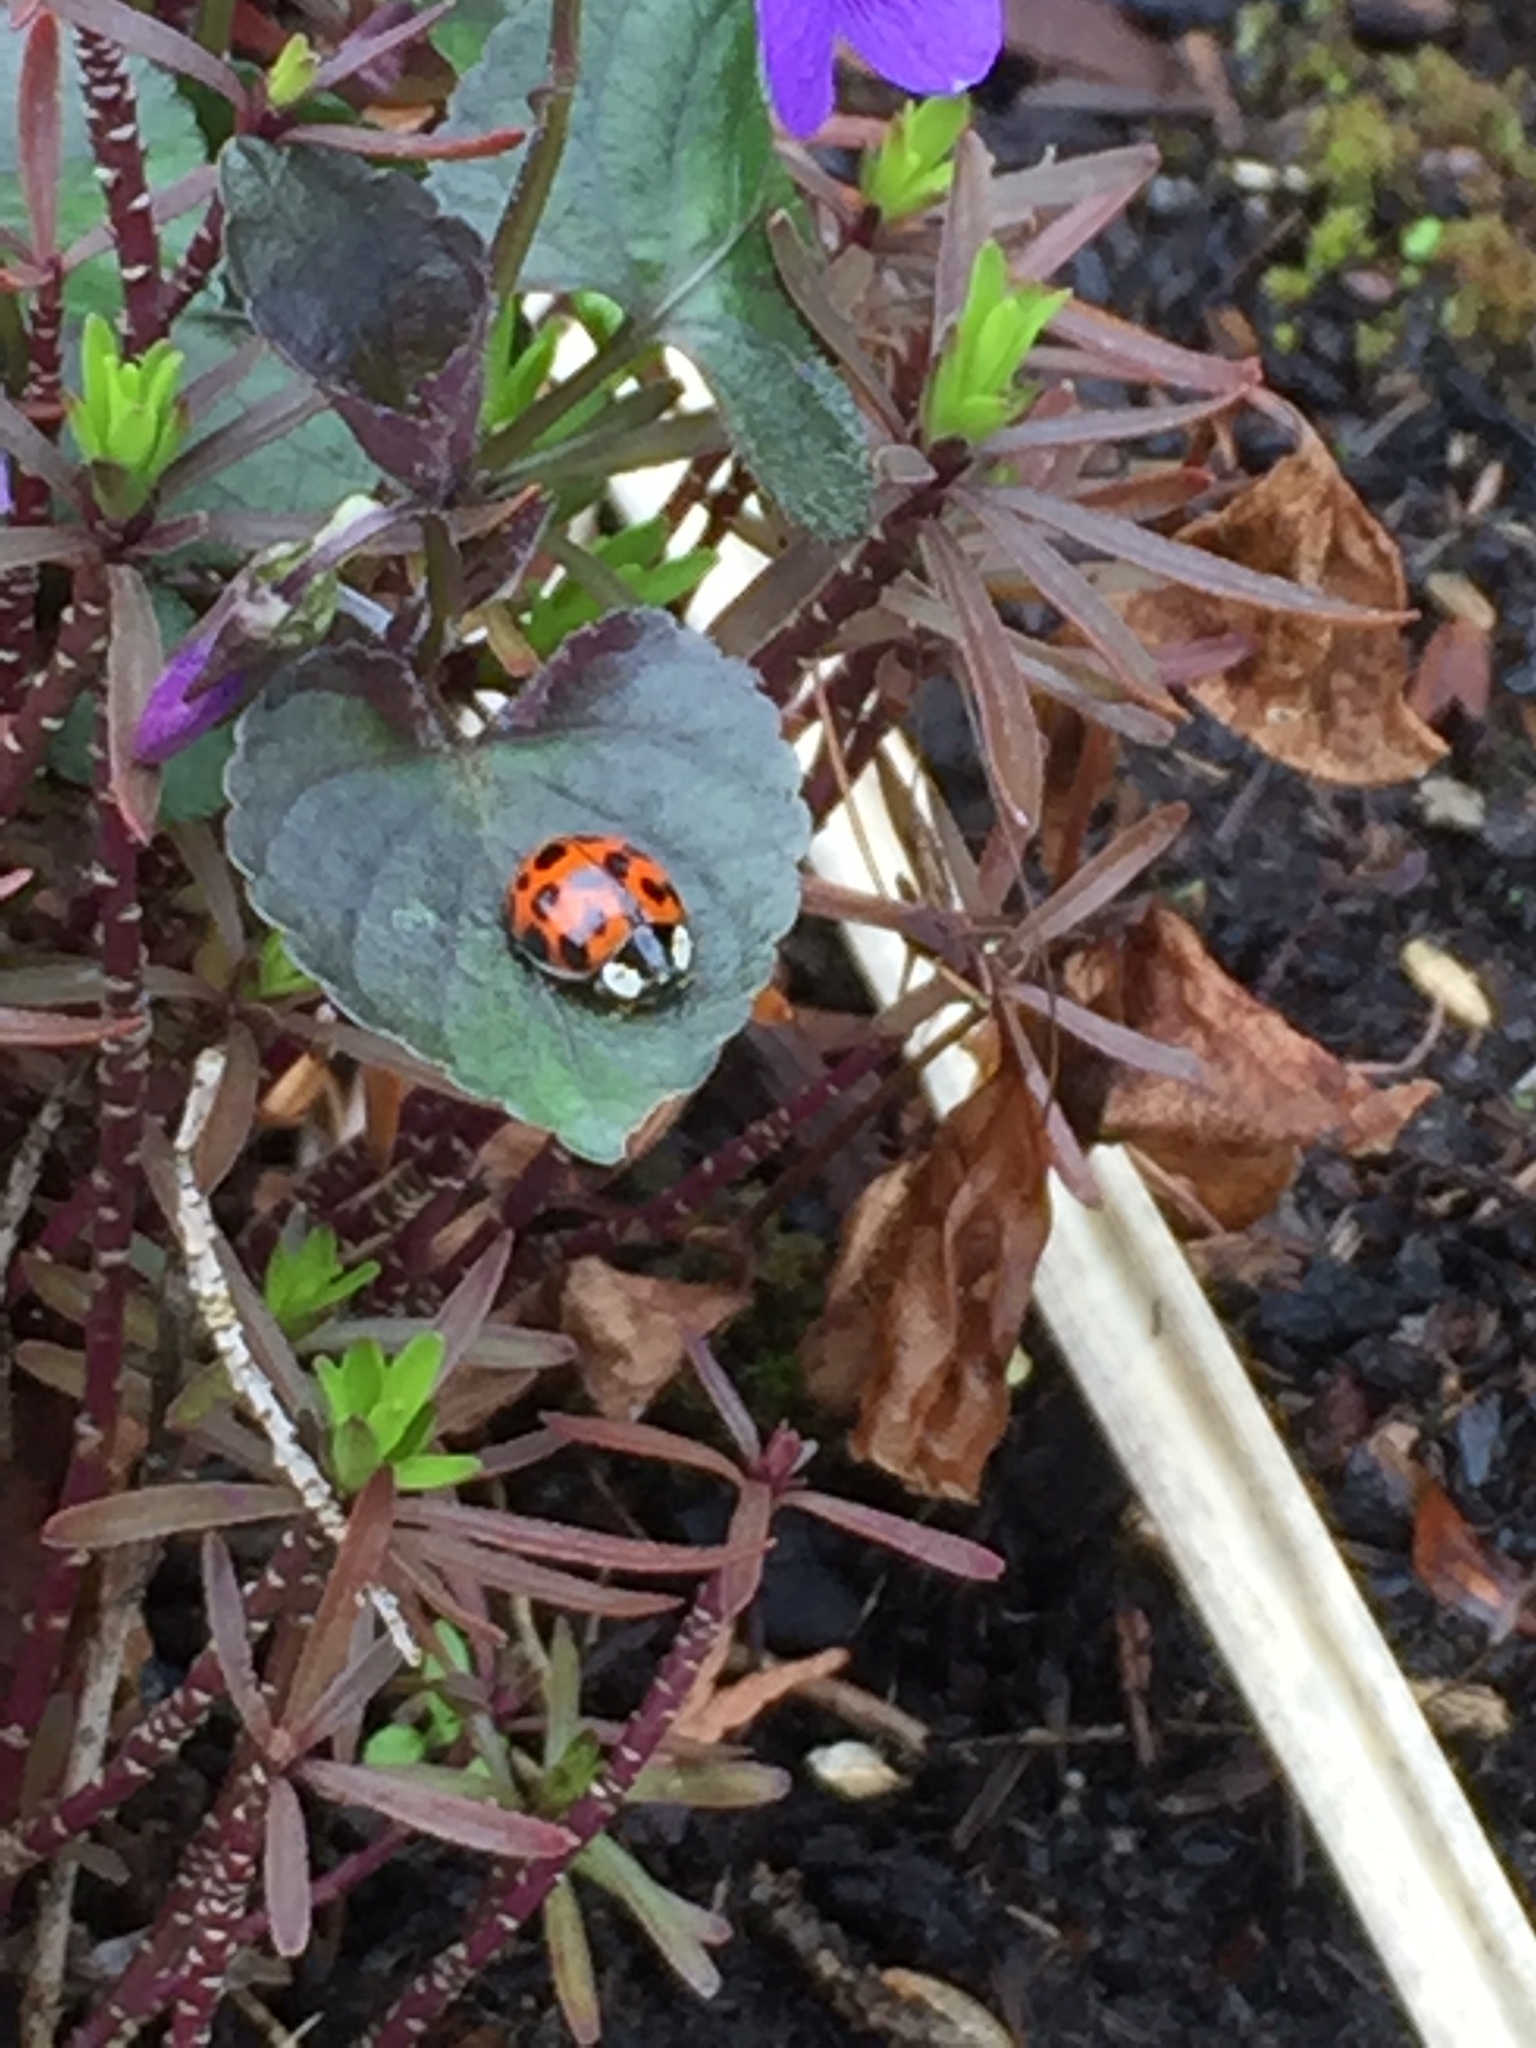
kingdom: Animalia
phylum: Arthropoda
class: Insecta
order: Coleoptera
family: Coccinellidae
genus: Harmonia
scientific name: Harmonia axyridis
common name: Harlequin ladybird
